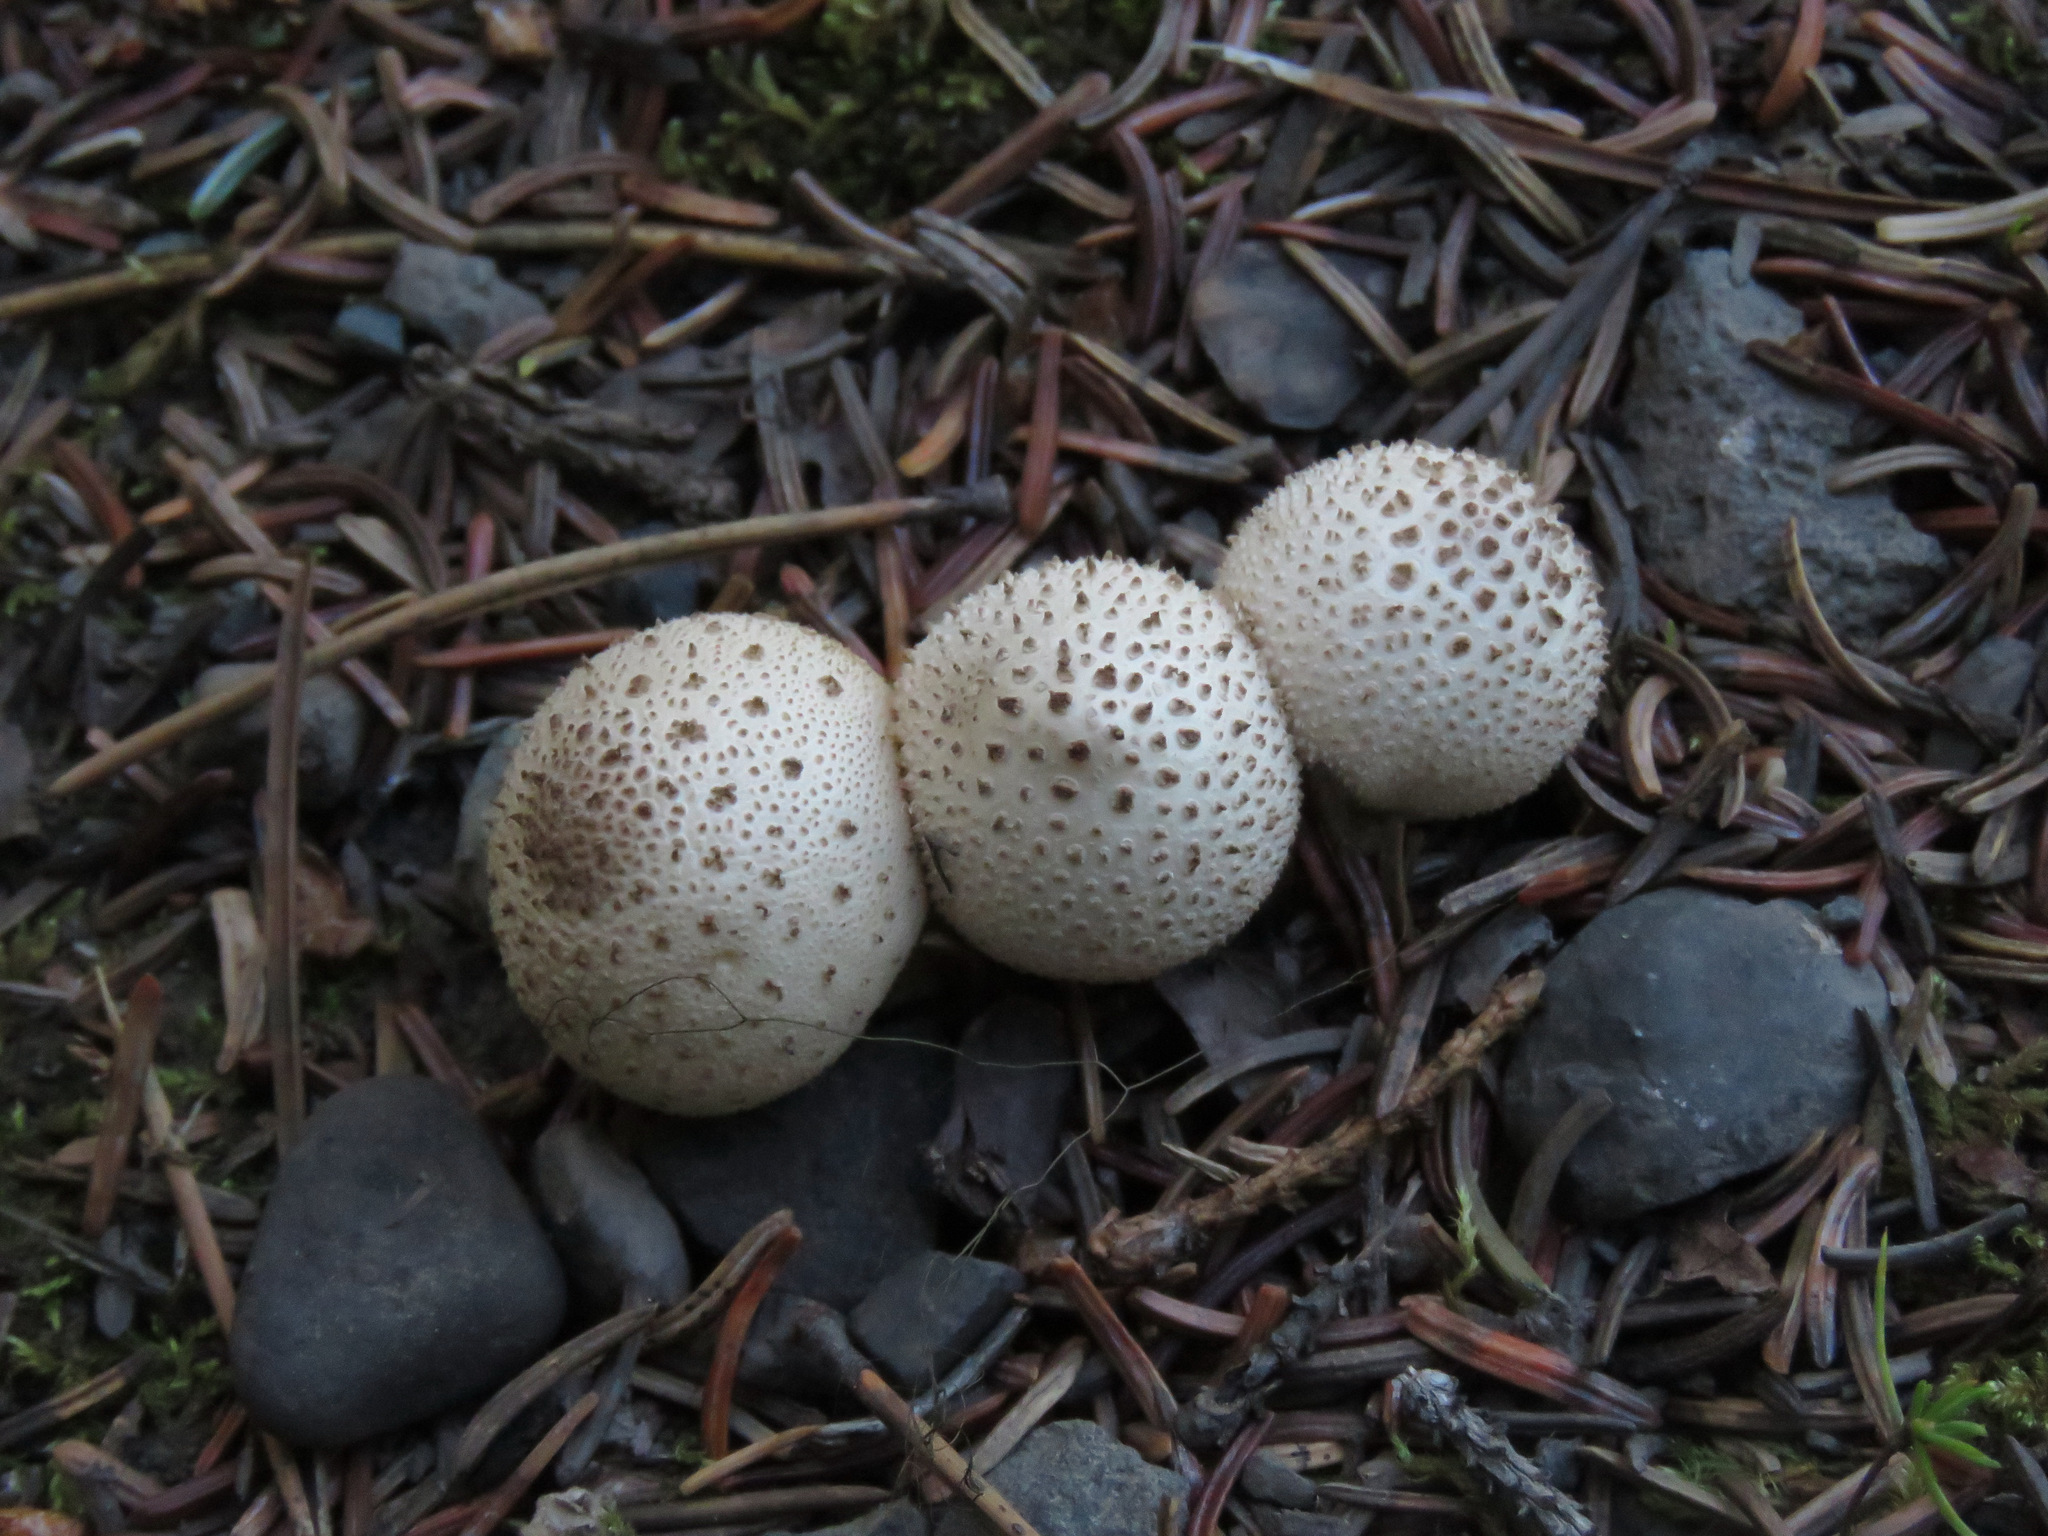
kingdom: Fungi
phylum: Basidiomycota
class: Agaricomycetes
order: Agaricales
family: Lycoperdaceae
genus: Lycoperdon
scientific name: Lycoperdon perlatum
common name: Common puffball
